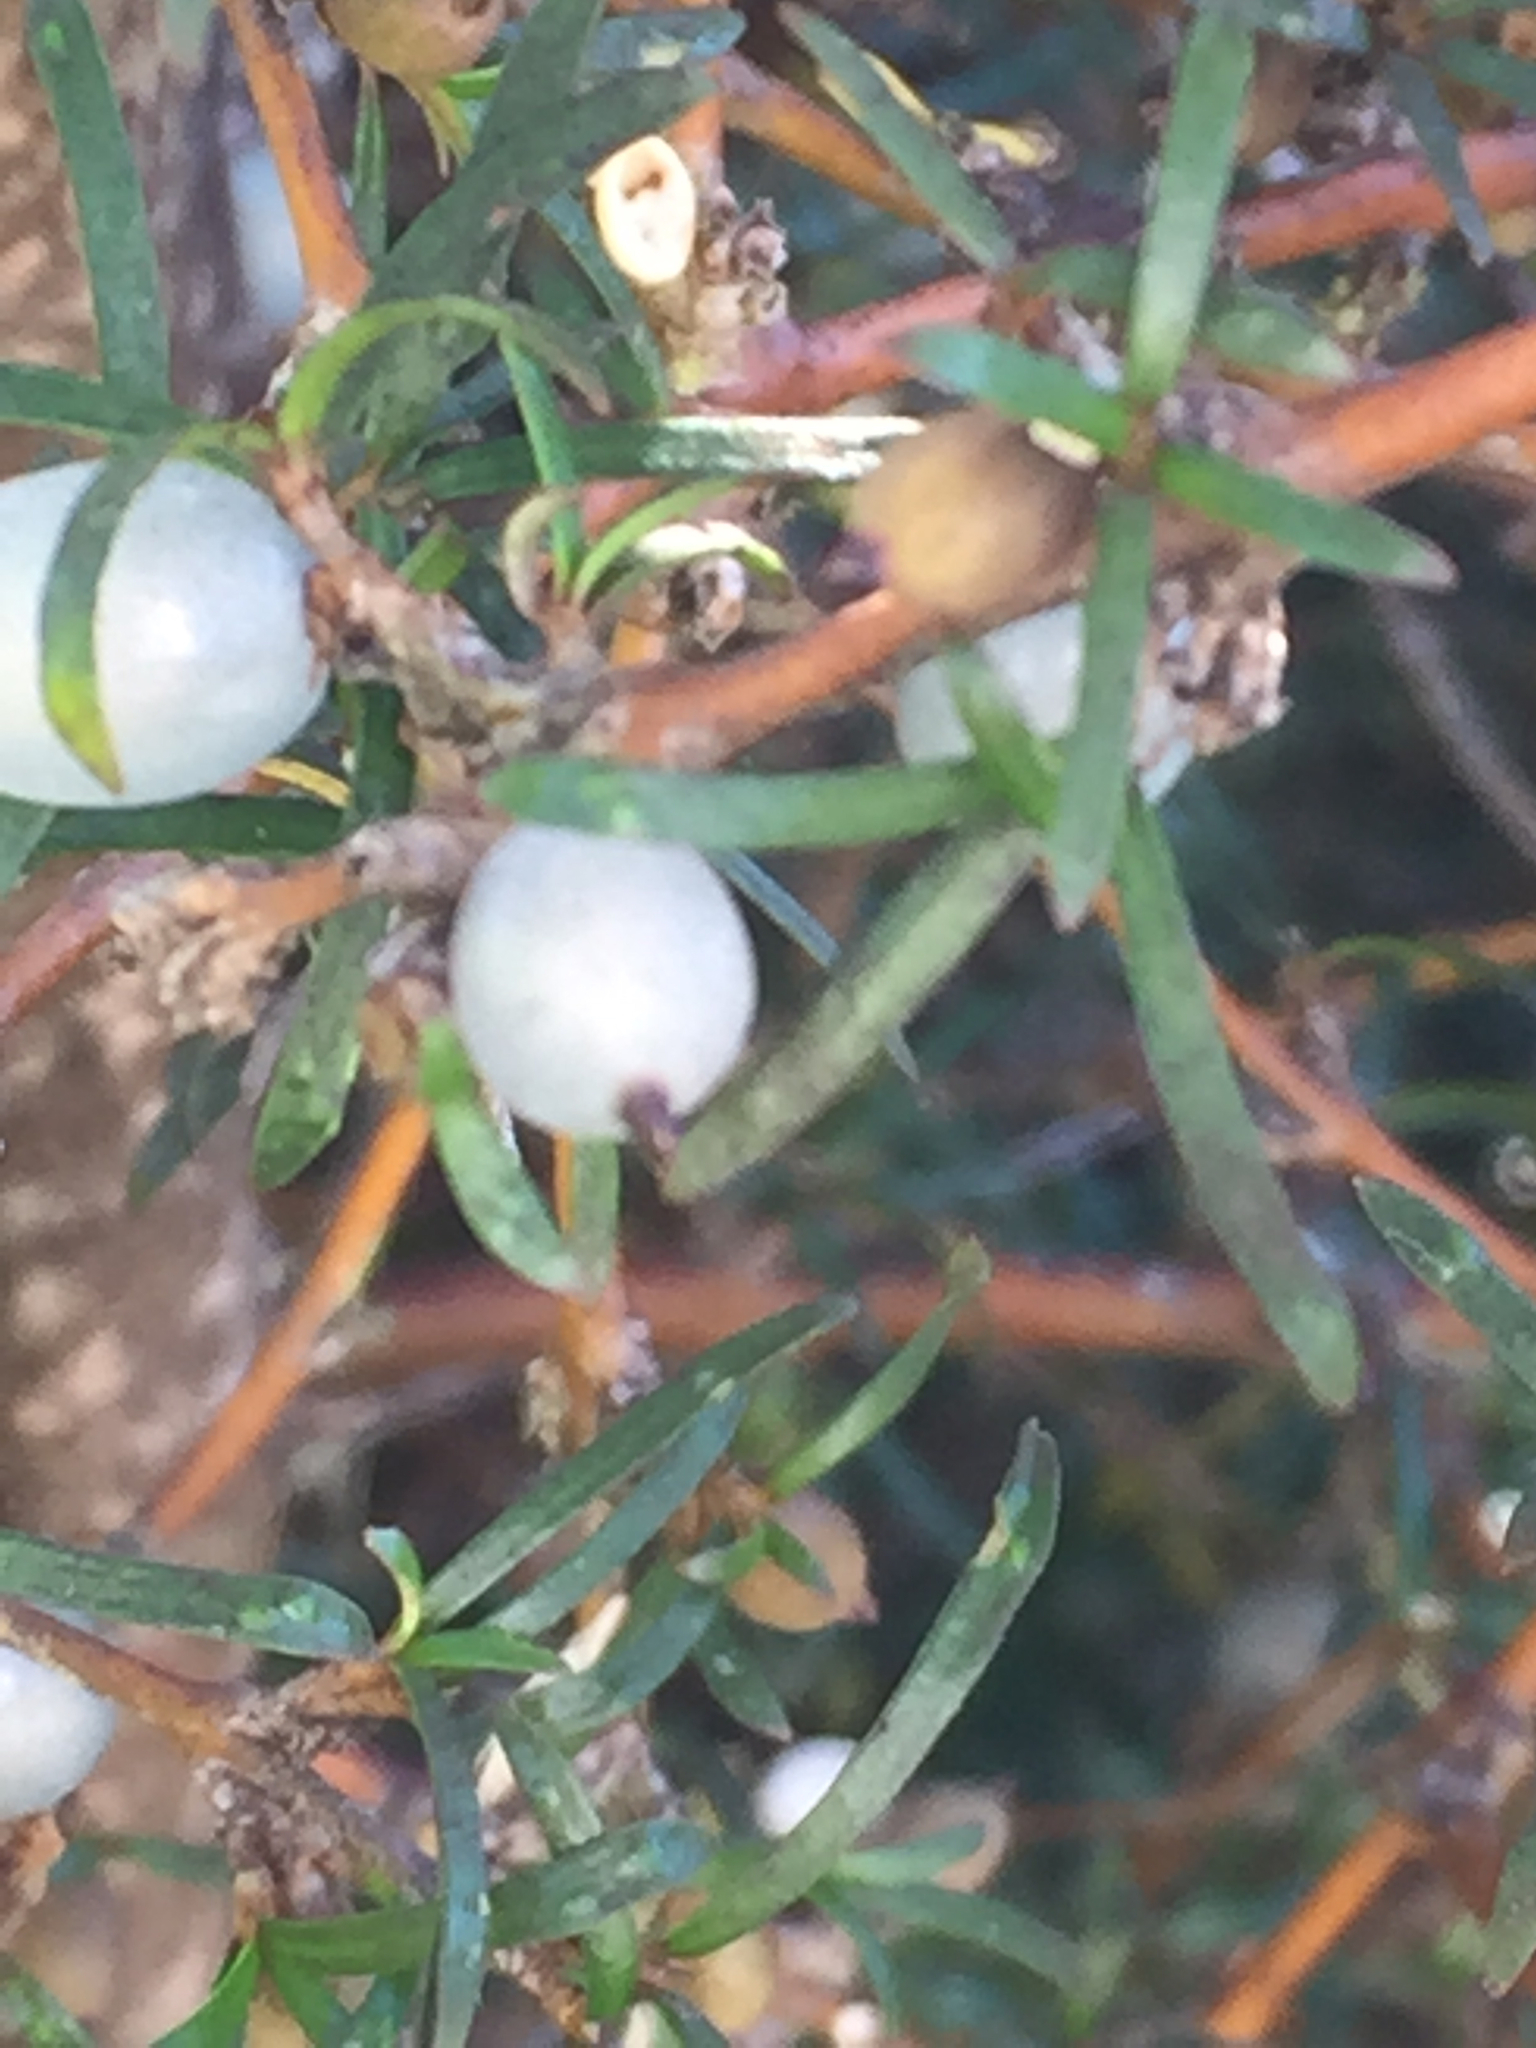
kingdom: Plantae
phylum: Tracheophyta
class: Magnoliopsida
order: Gentianales
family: Rubiaceae
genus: Coprosma
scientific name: Coprosma rugosa
